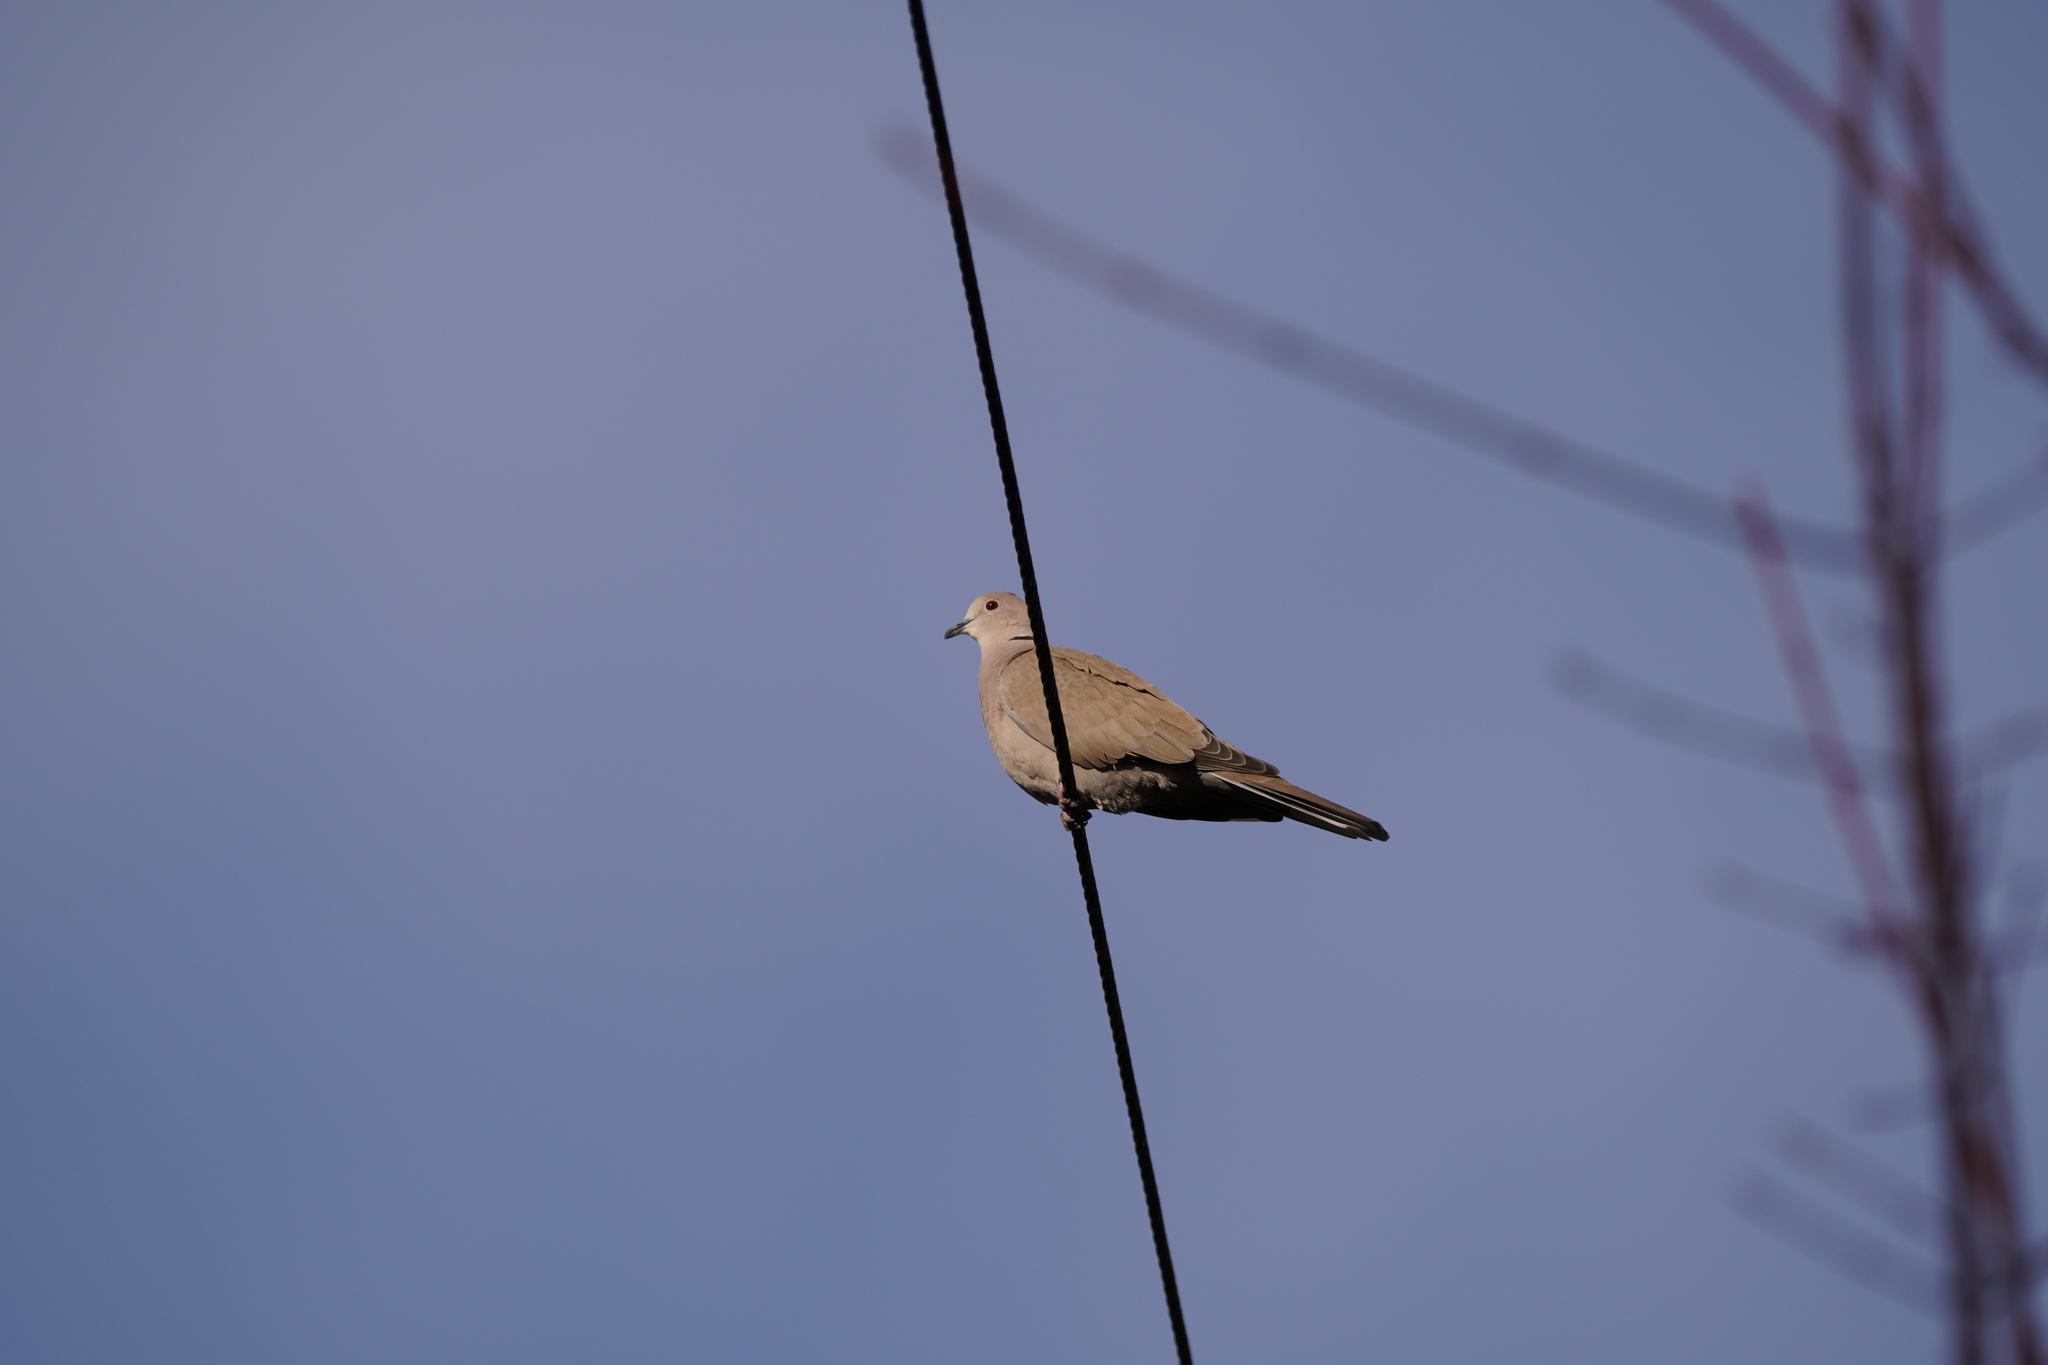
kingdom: Animalia
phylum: Chordata
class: Aves
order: Columbiformes
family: Columbidae
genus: Streptopelia
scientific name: Streptopelia decaocto
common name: Eurasian collared dove
